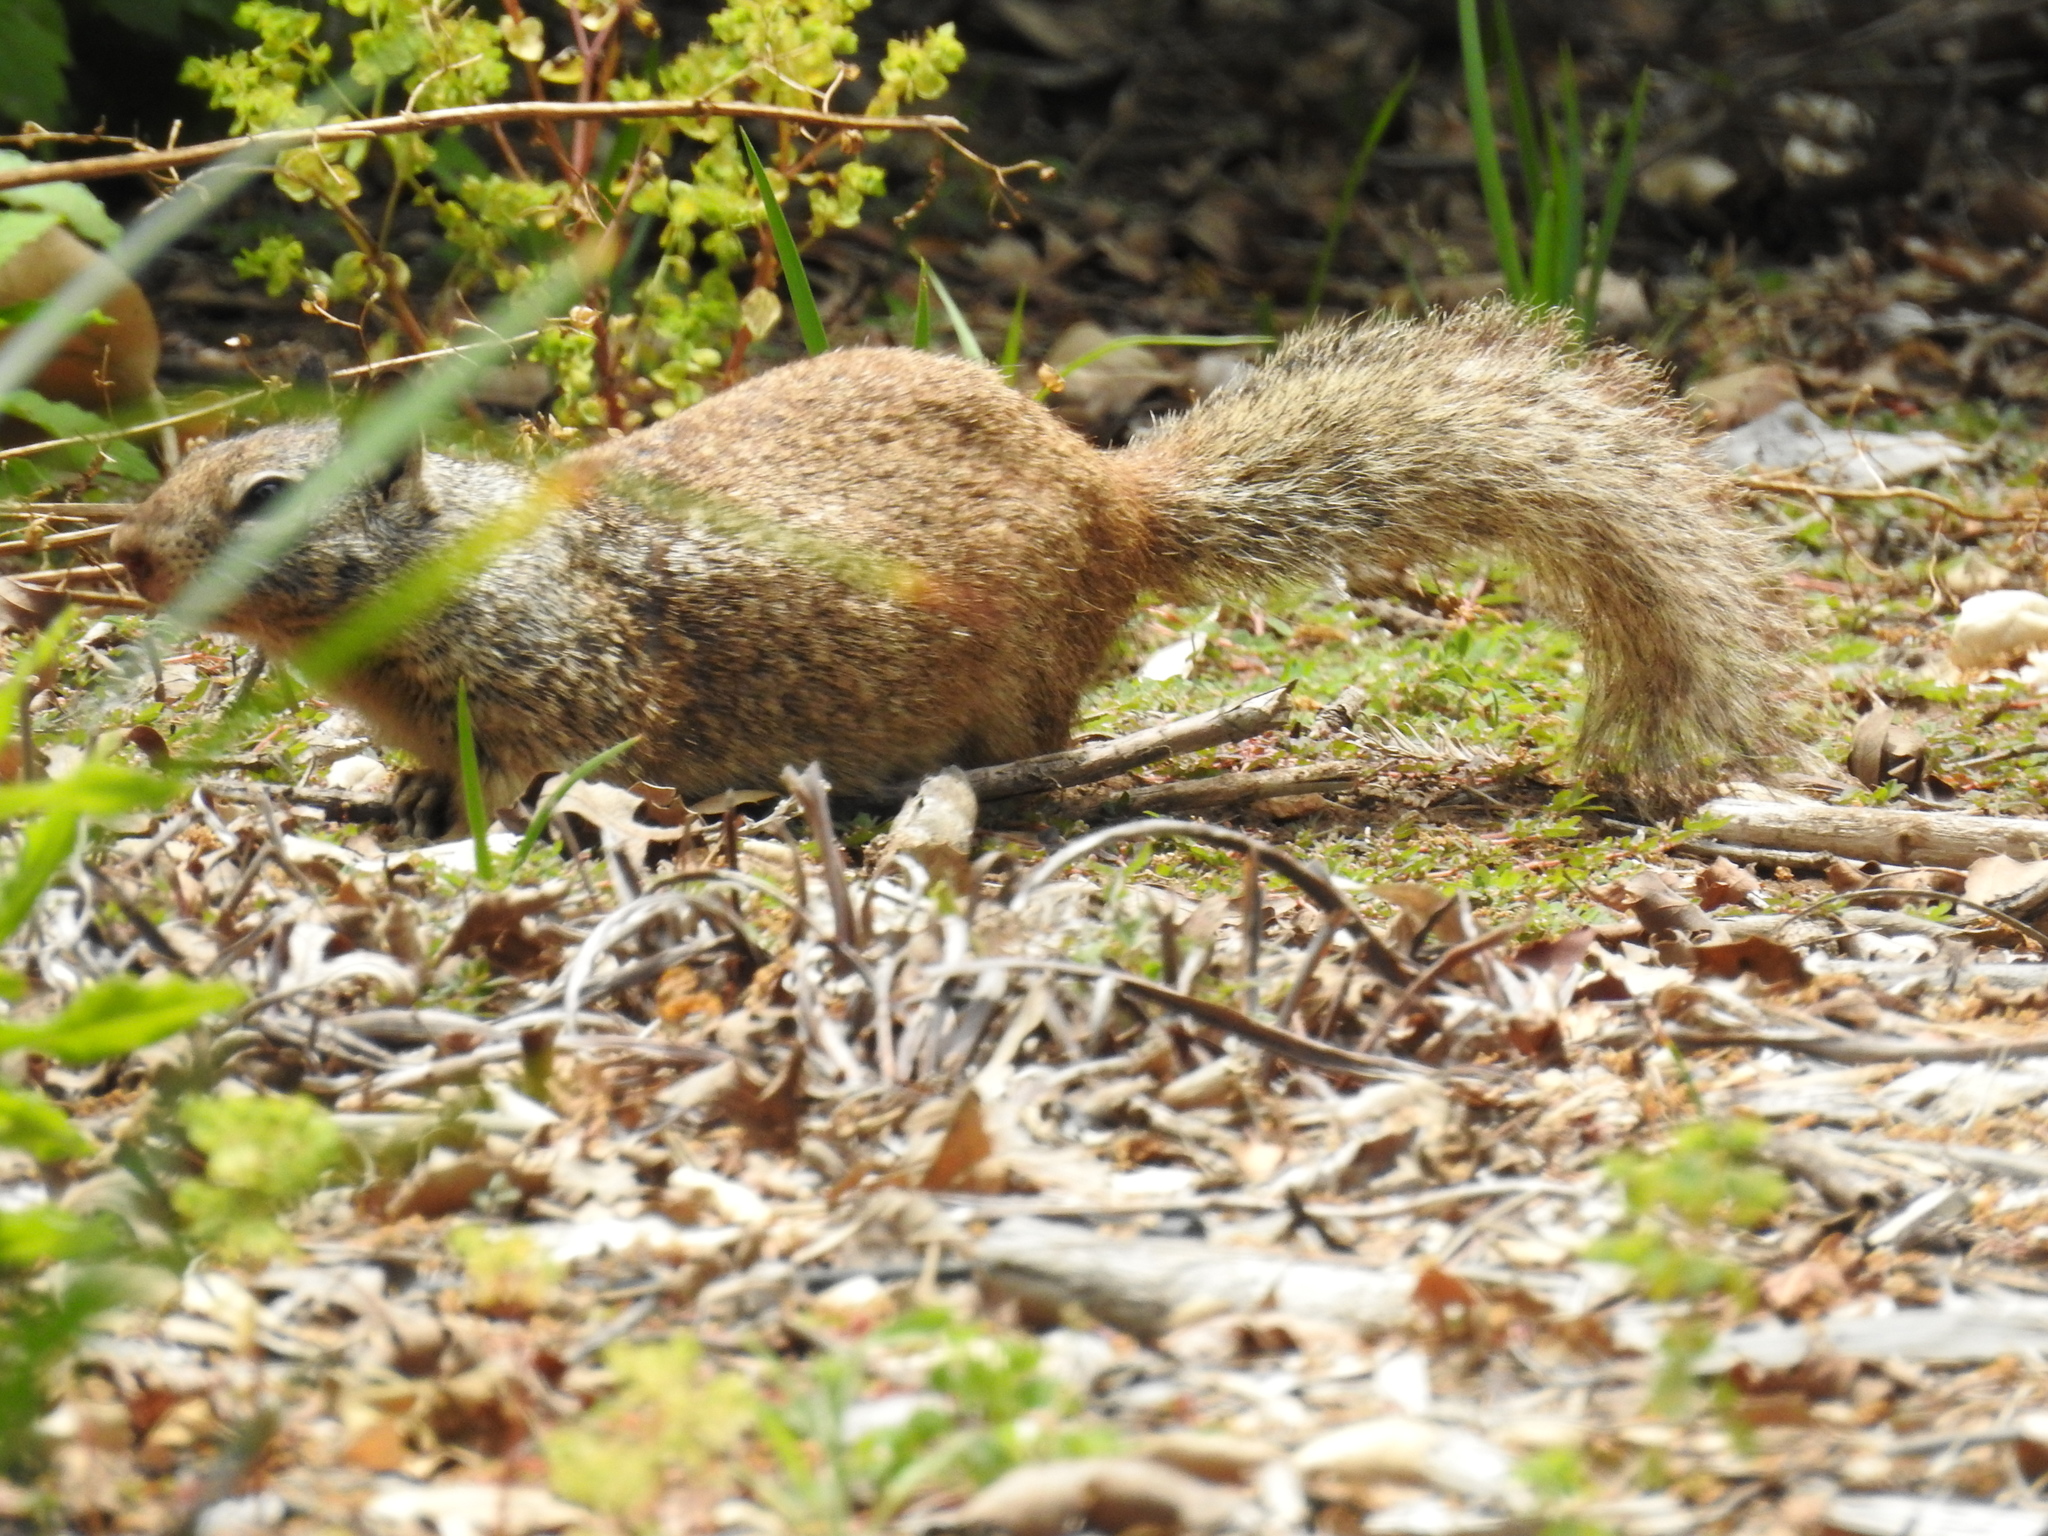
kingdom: Animalia
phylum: Chordata
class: Mammalia
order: Rodentia
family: Sciuridae
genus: Otospermophilus
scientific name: Otospermophilus beecheyi
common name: California ground squirrel
